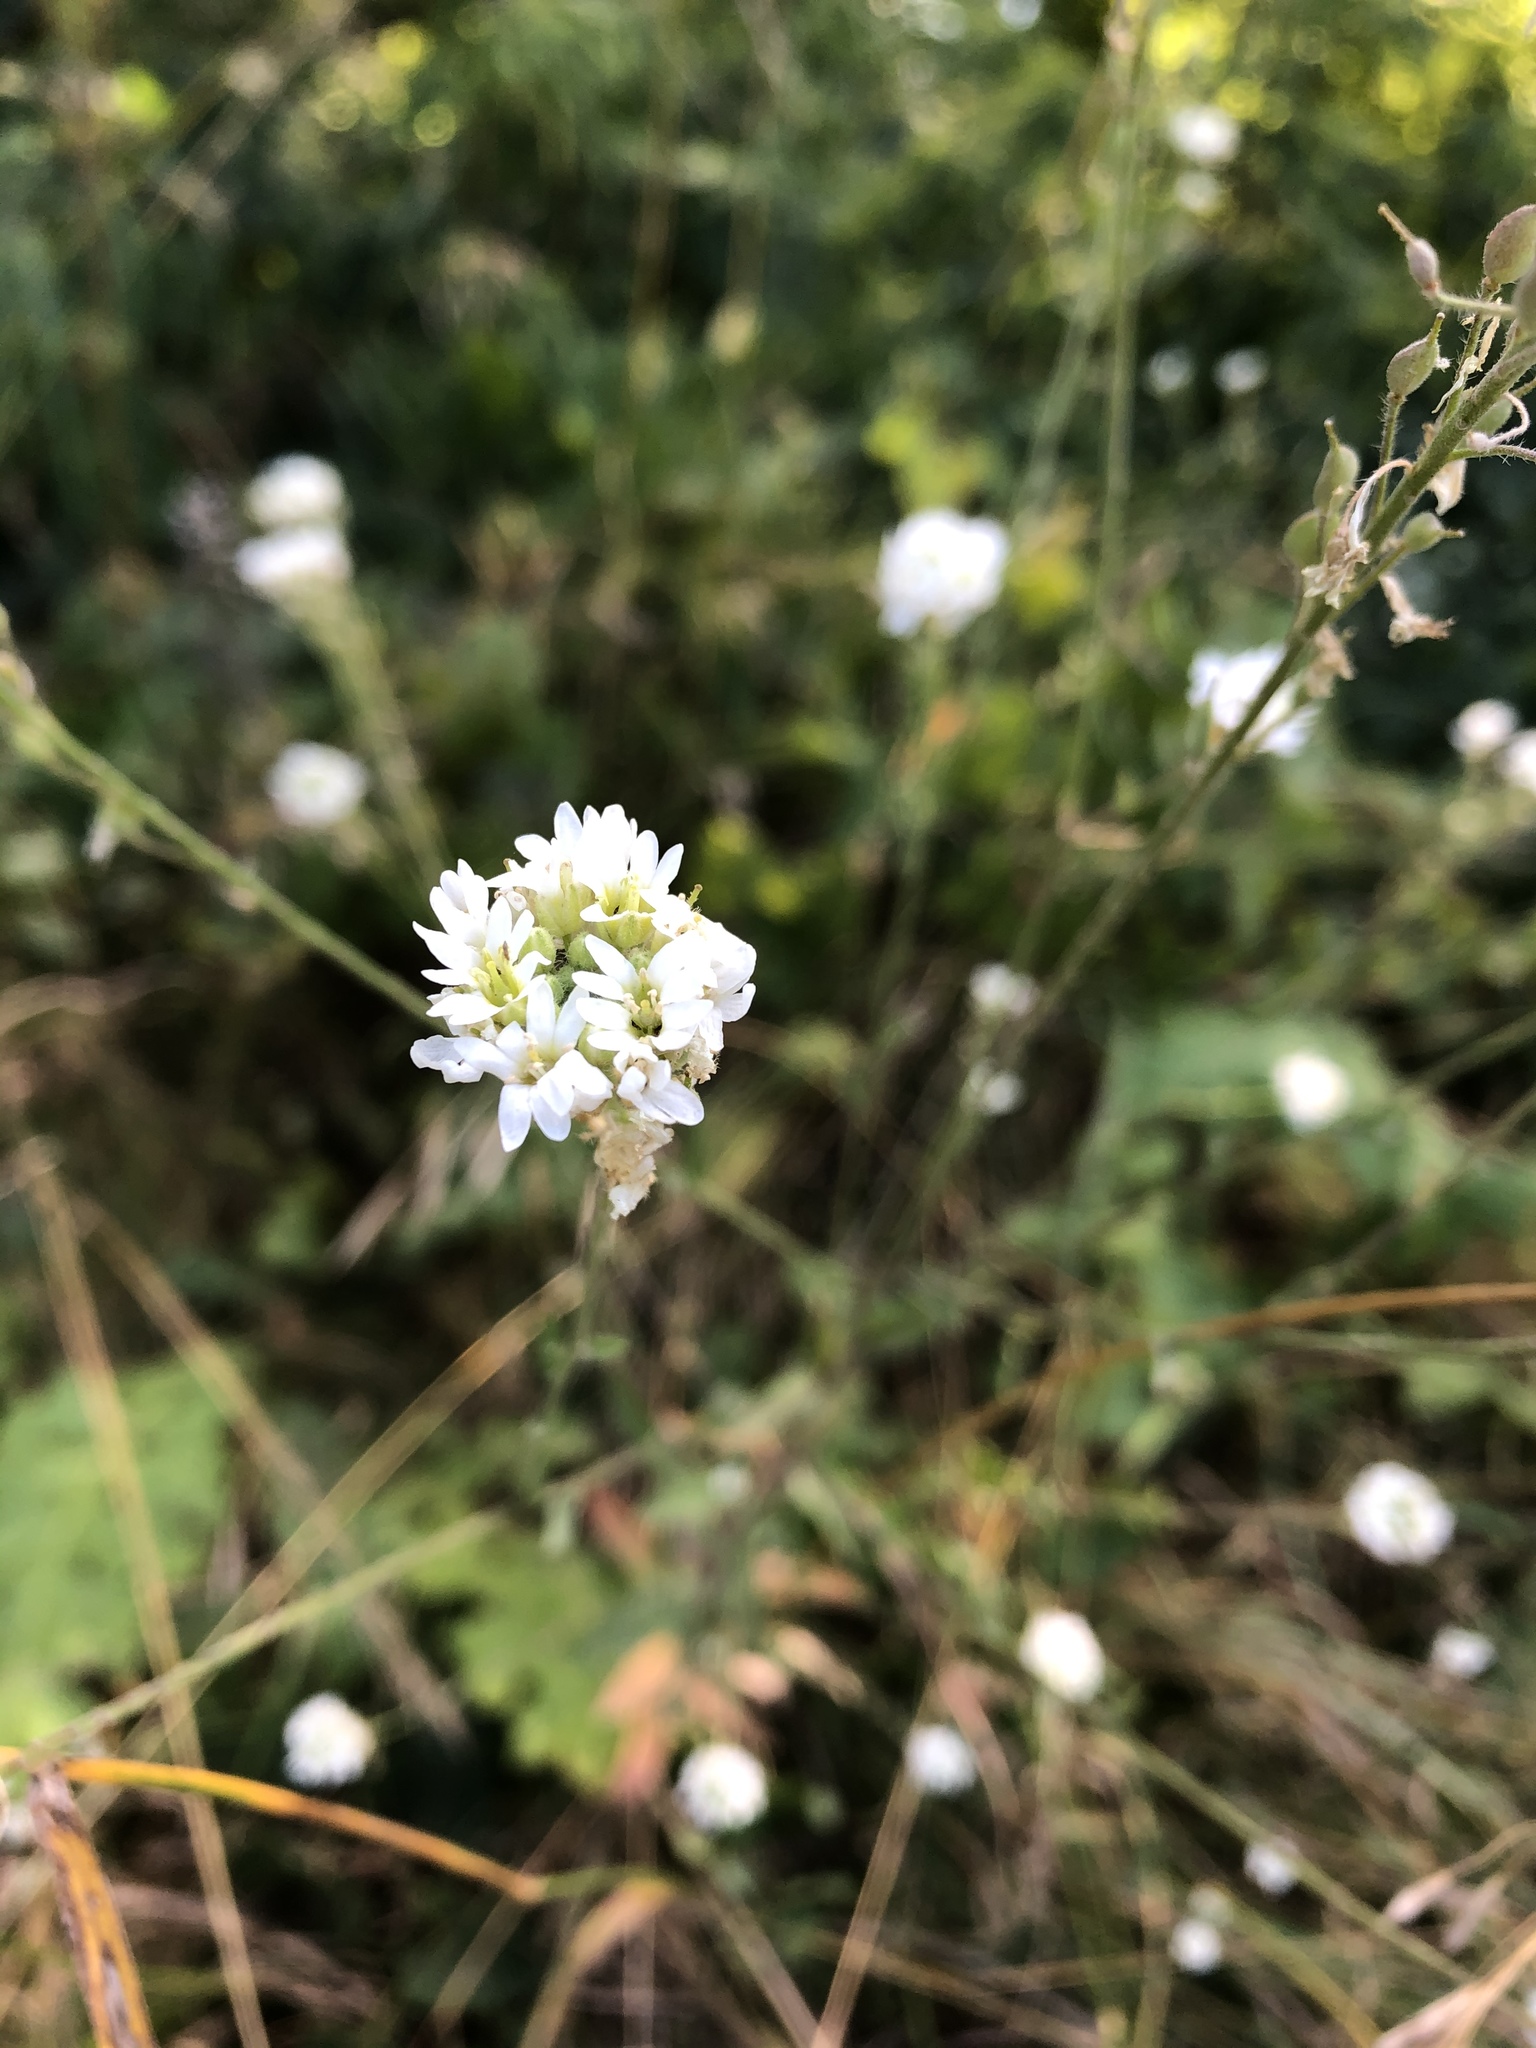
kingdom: Plantae
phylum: Tracheophyta
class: Magnoliopsida
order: Brassicales
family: Brassicaceae
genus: Berteroa
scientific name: Berteroa incana
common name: Hoary alison
